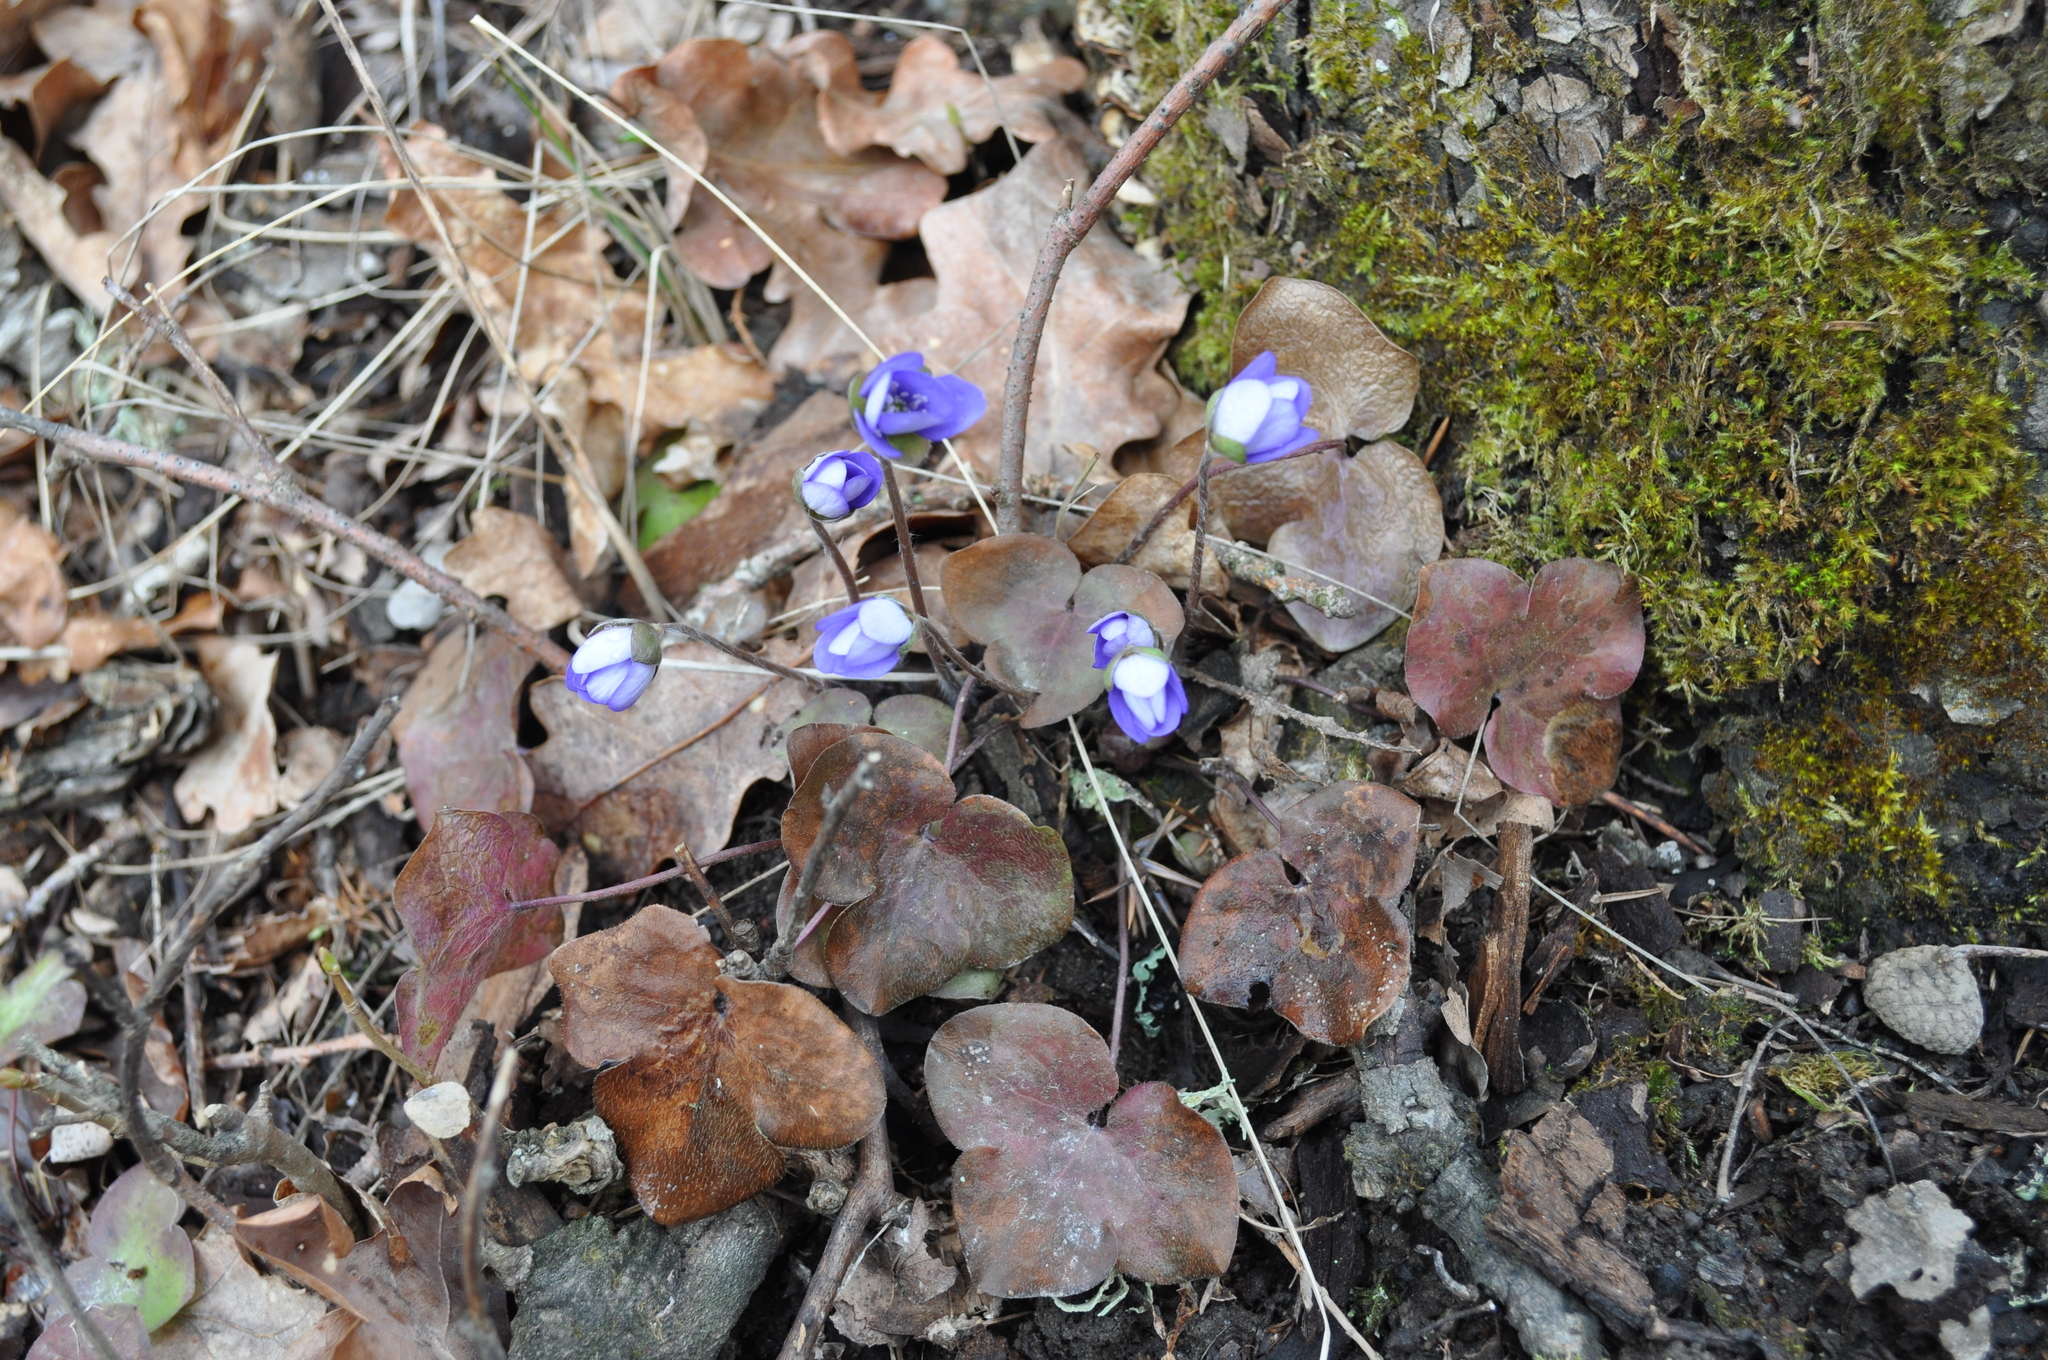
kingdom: Plantae
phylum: Tracheophyta
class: Magnoliopsida
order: Ranunculales
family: Ranunculaceae
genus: Hepatica
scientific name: Hepatica nobilis
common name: Liverleaf
